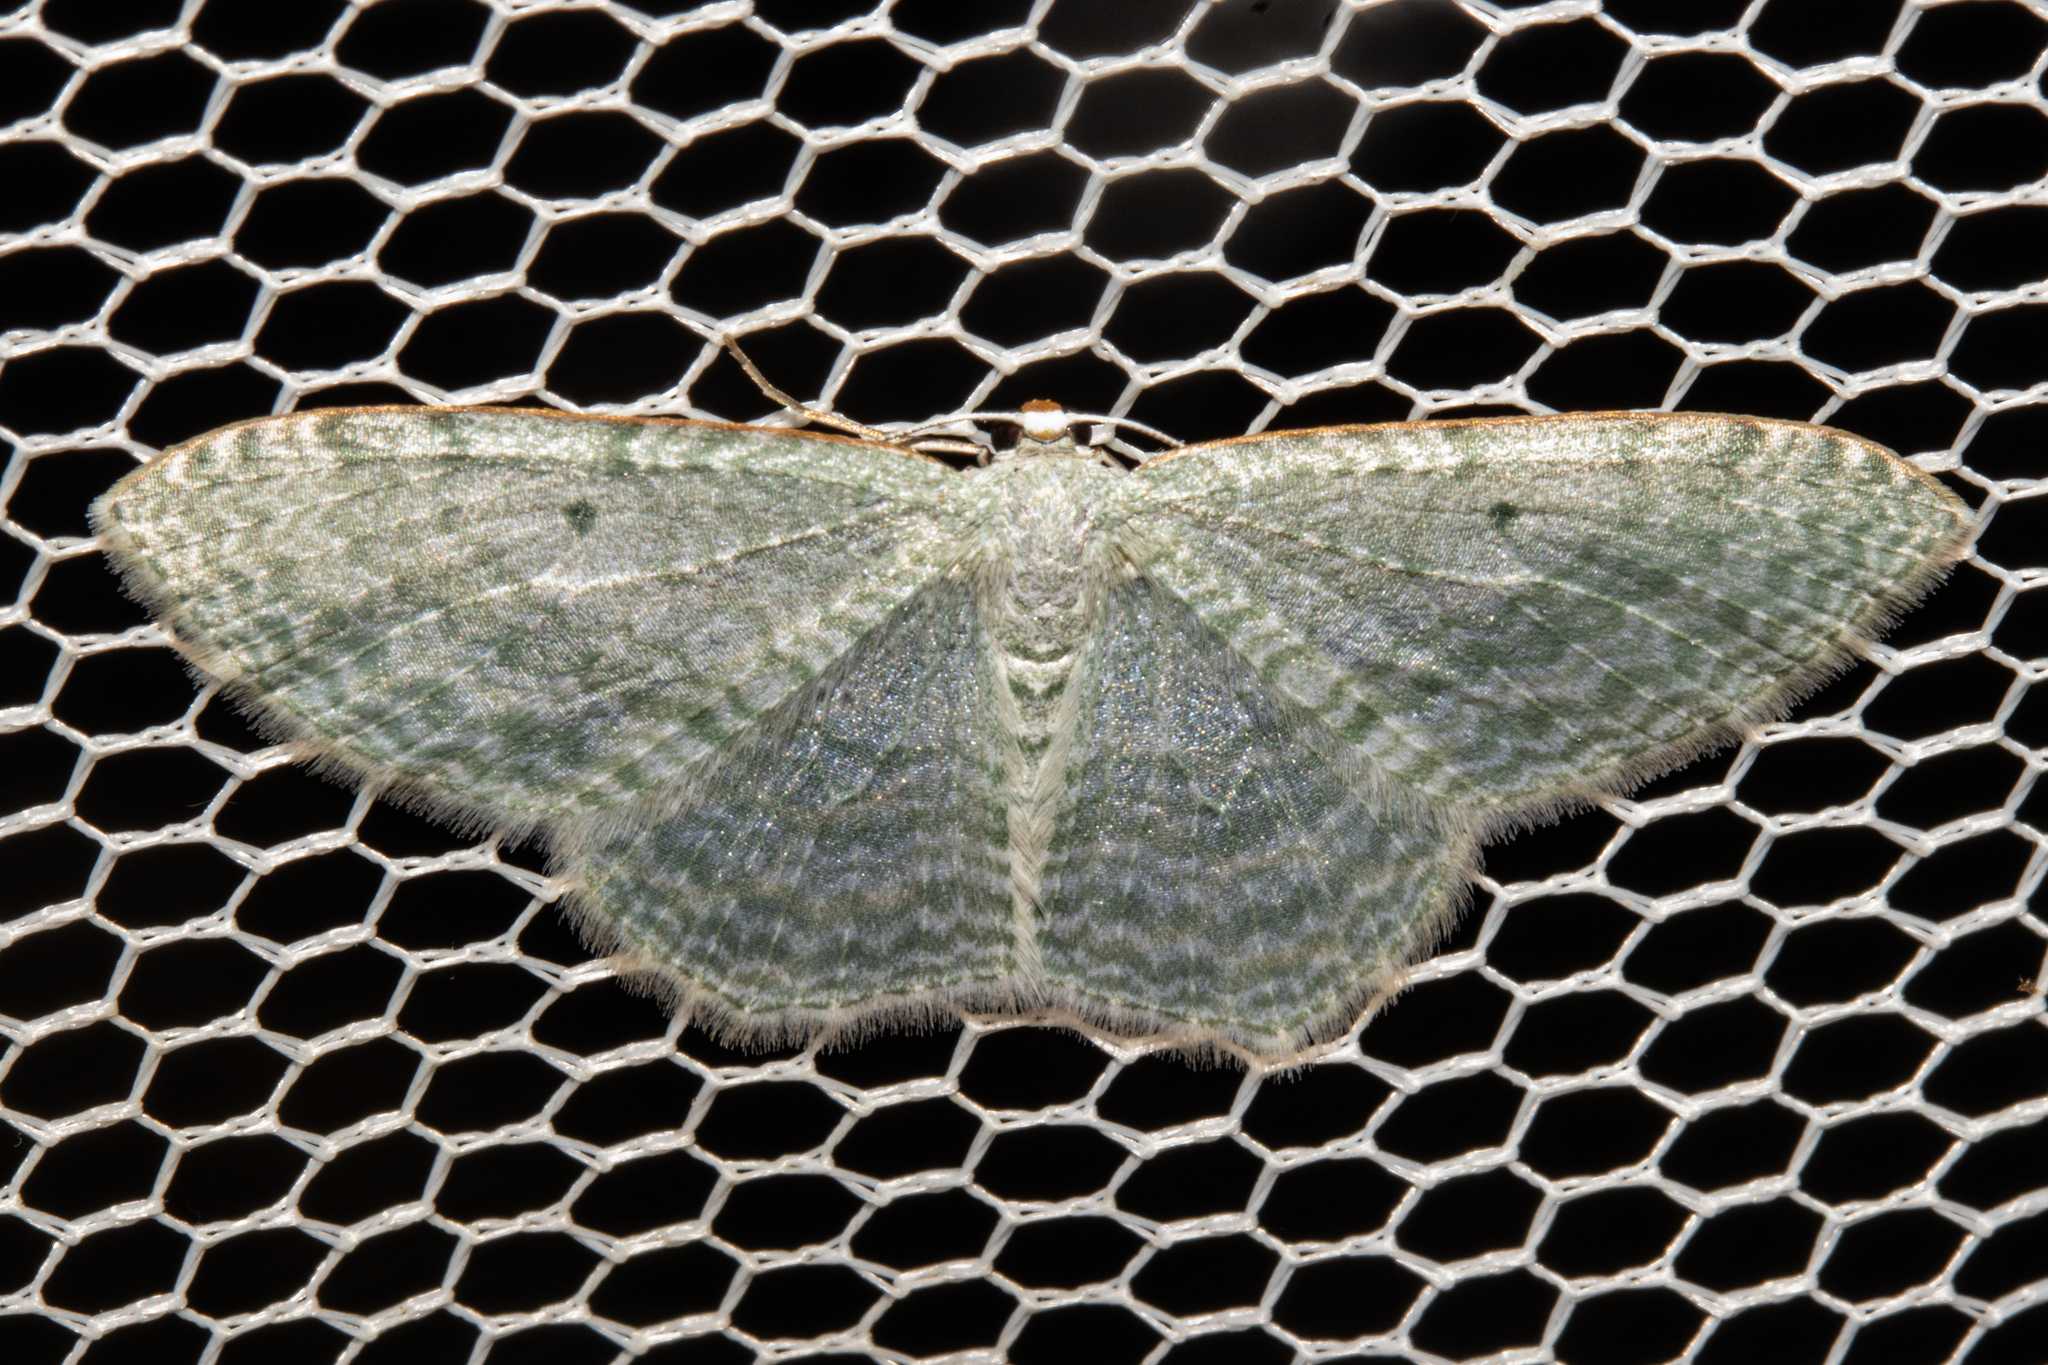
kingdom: Animalia
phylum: Arthropoda
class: Insecta
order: Lepidoptera
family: Geometridae
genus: Poecilasthena
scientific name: Poecilasthena pulchraria
